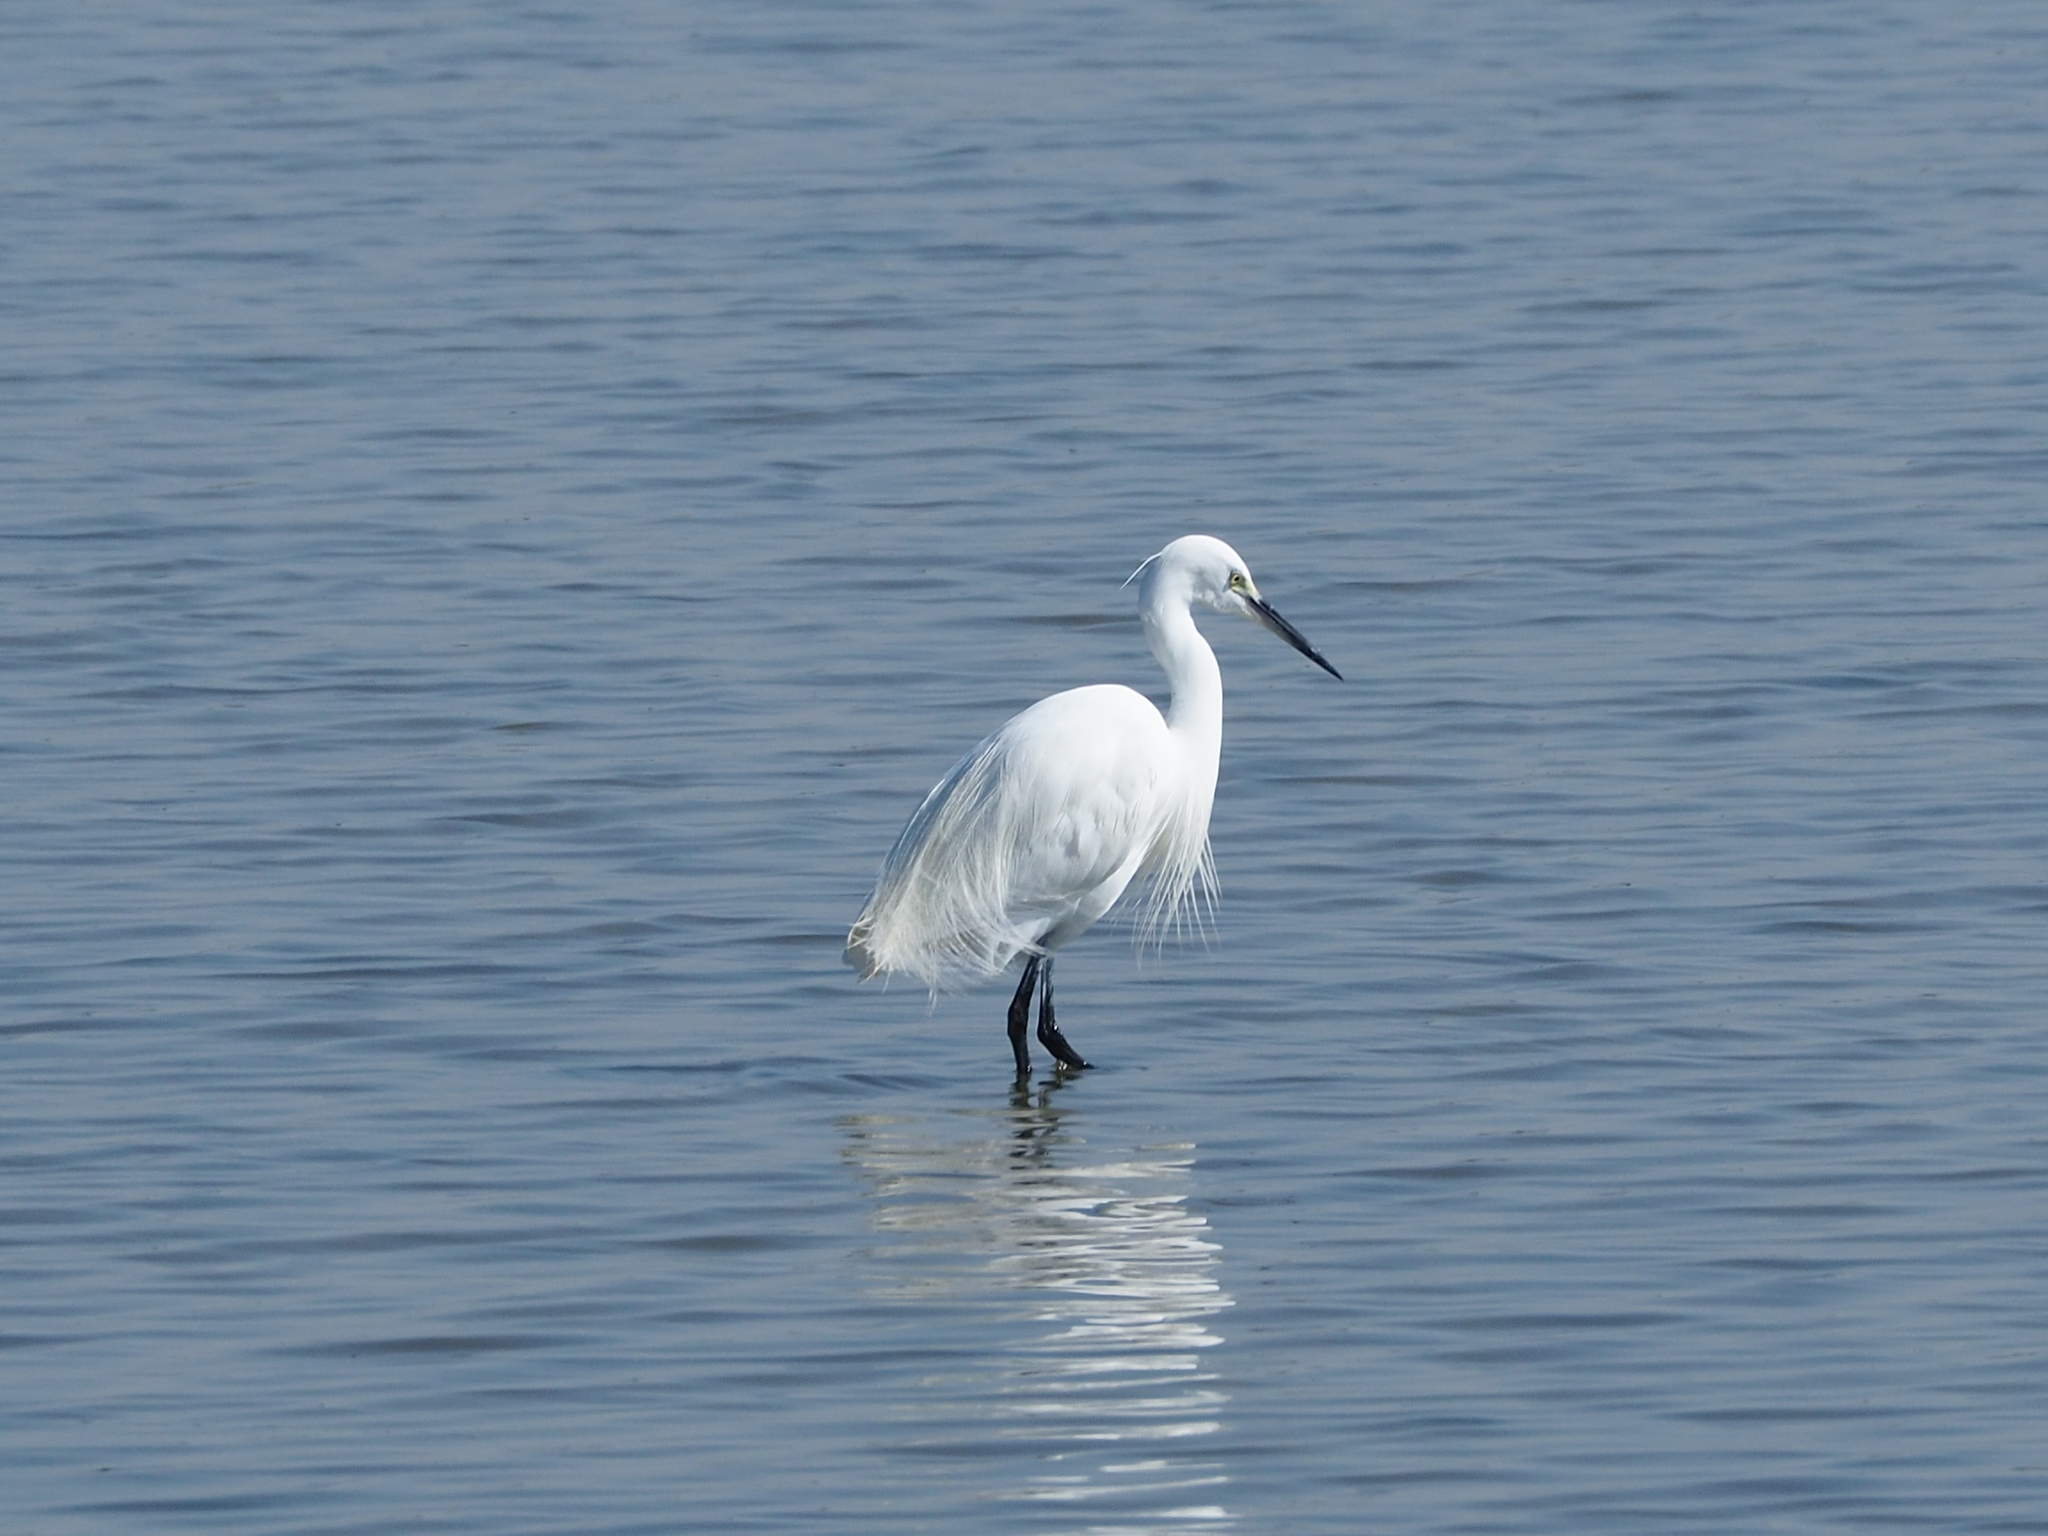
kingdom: Animalia
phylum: Chordata
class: Aves
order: Pelecaniformes
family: Ardeidae
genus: Egretta
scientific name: Egretta garzetta
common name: Little egret
